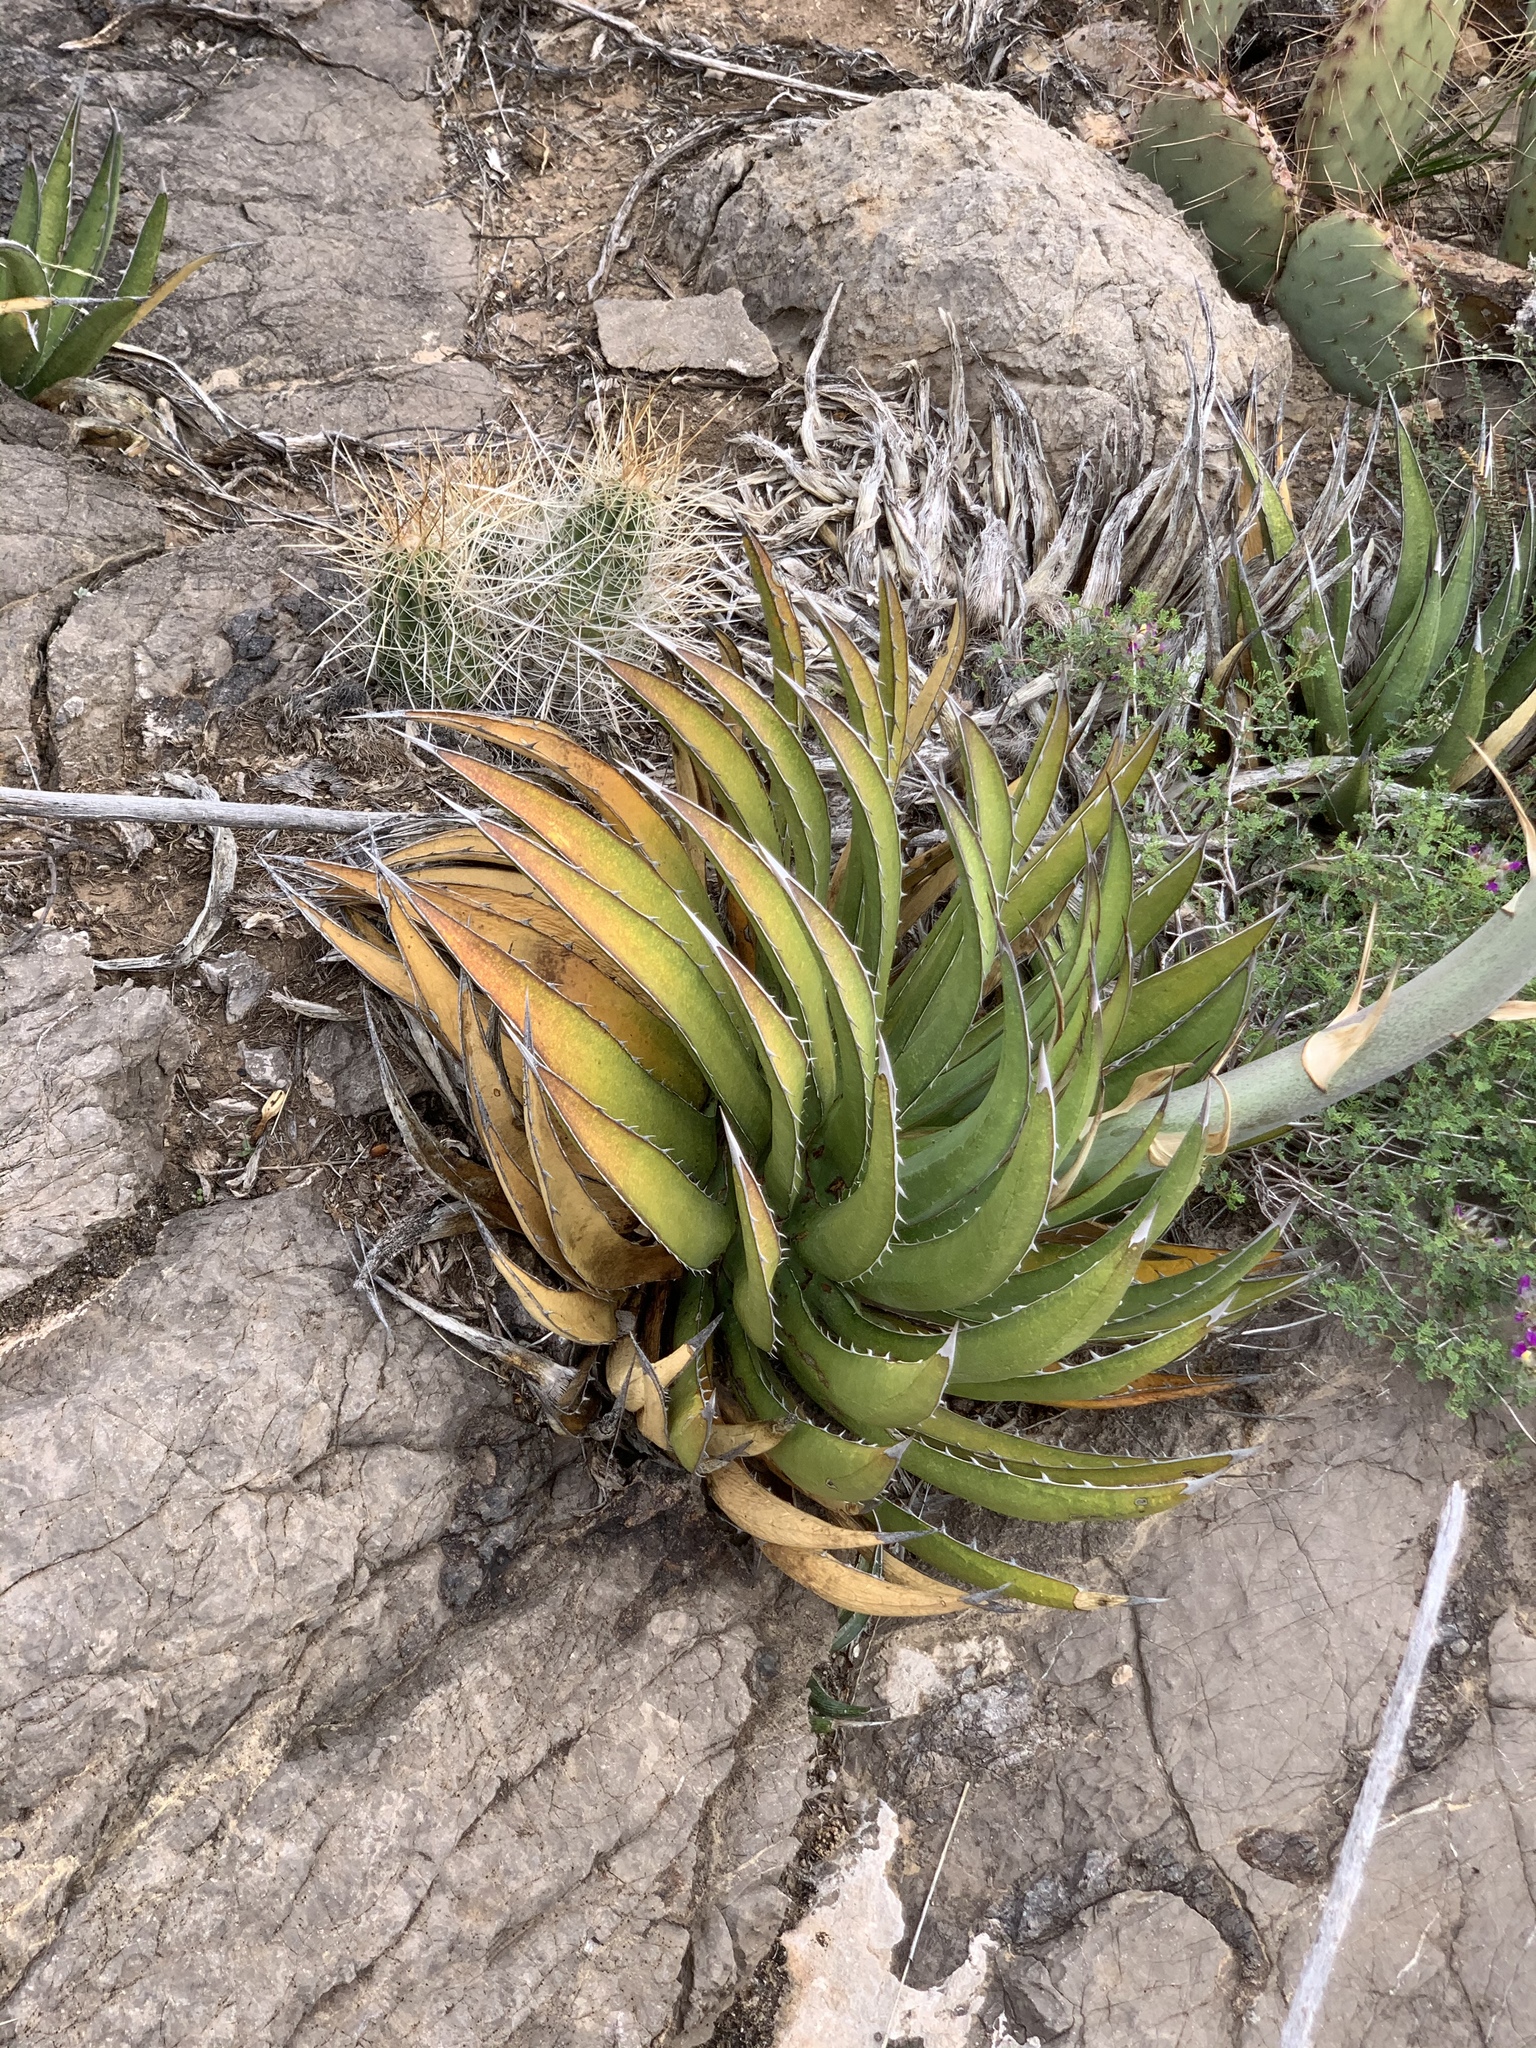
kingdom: Plantae
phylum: Tracheophyta
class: Liliopsida
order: Asparagales
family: Asparagaceae
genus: Agave
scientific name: Agave lechuguilla
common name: Lecheguilla agave
